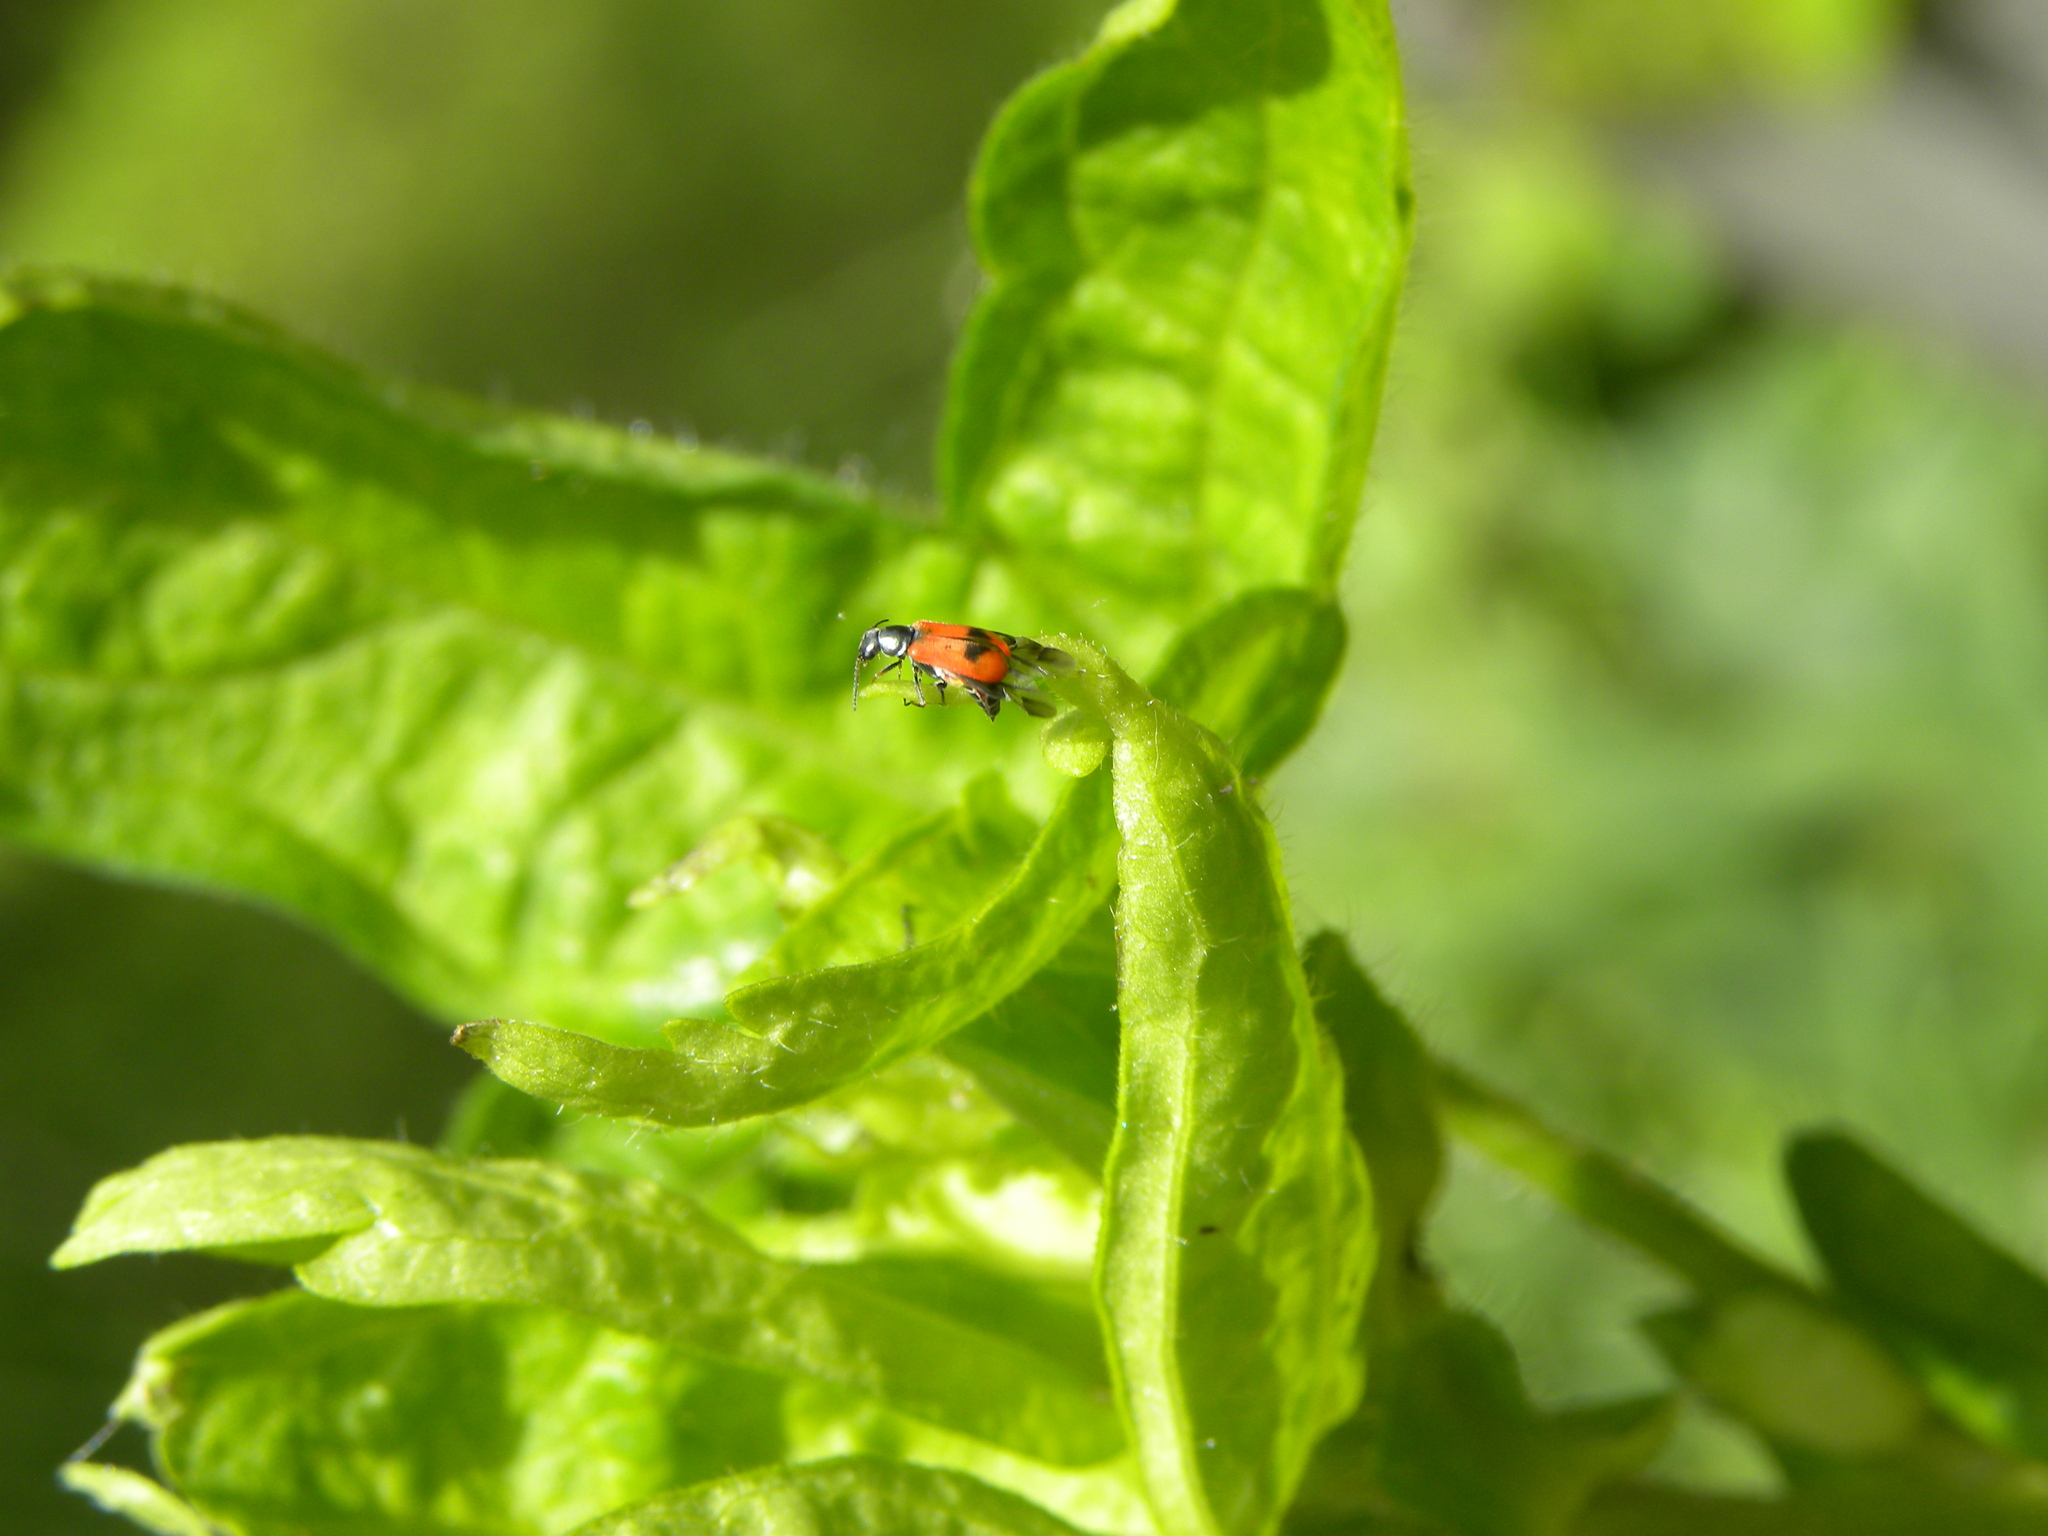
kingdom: Animalia
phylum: Arthropoda
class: Insecta
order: Coleoptera
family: Melyridae
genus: Anthocomus
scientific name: Anthocomus equestris
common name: Black-banded soft-winged flower beetle
